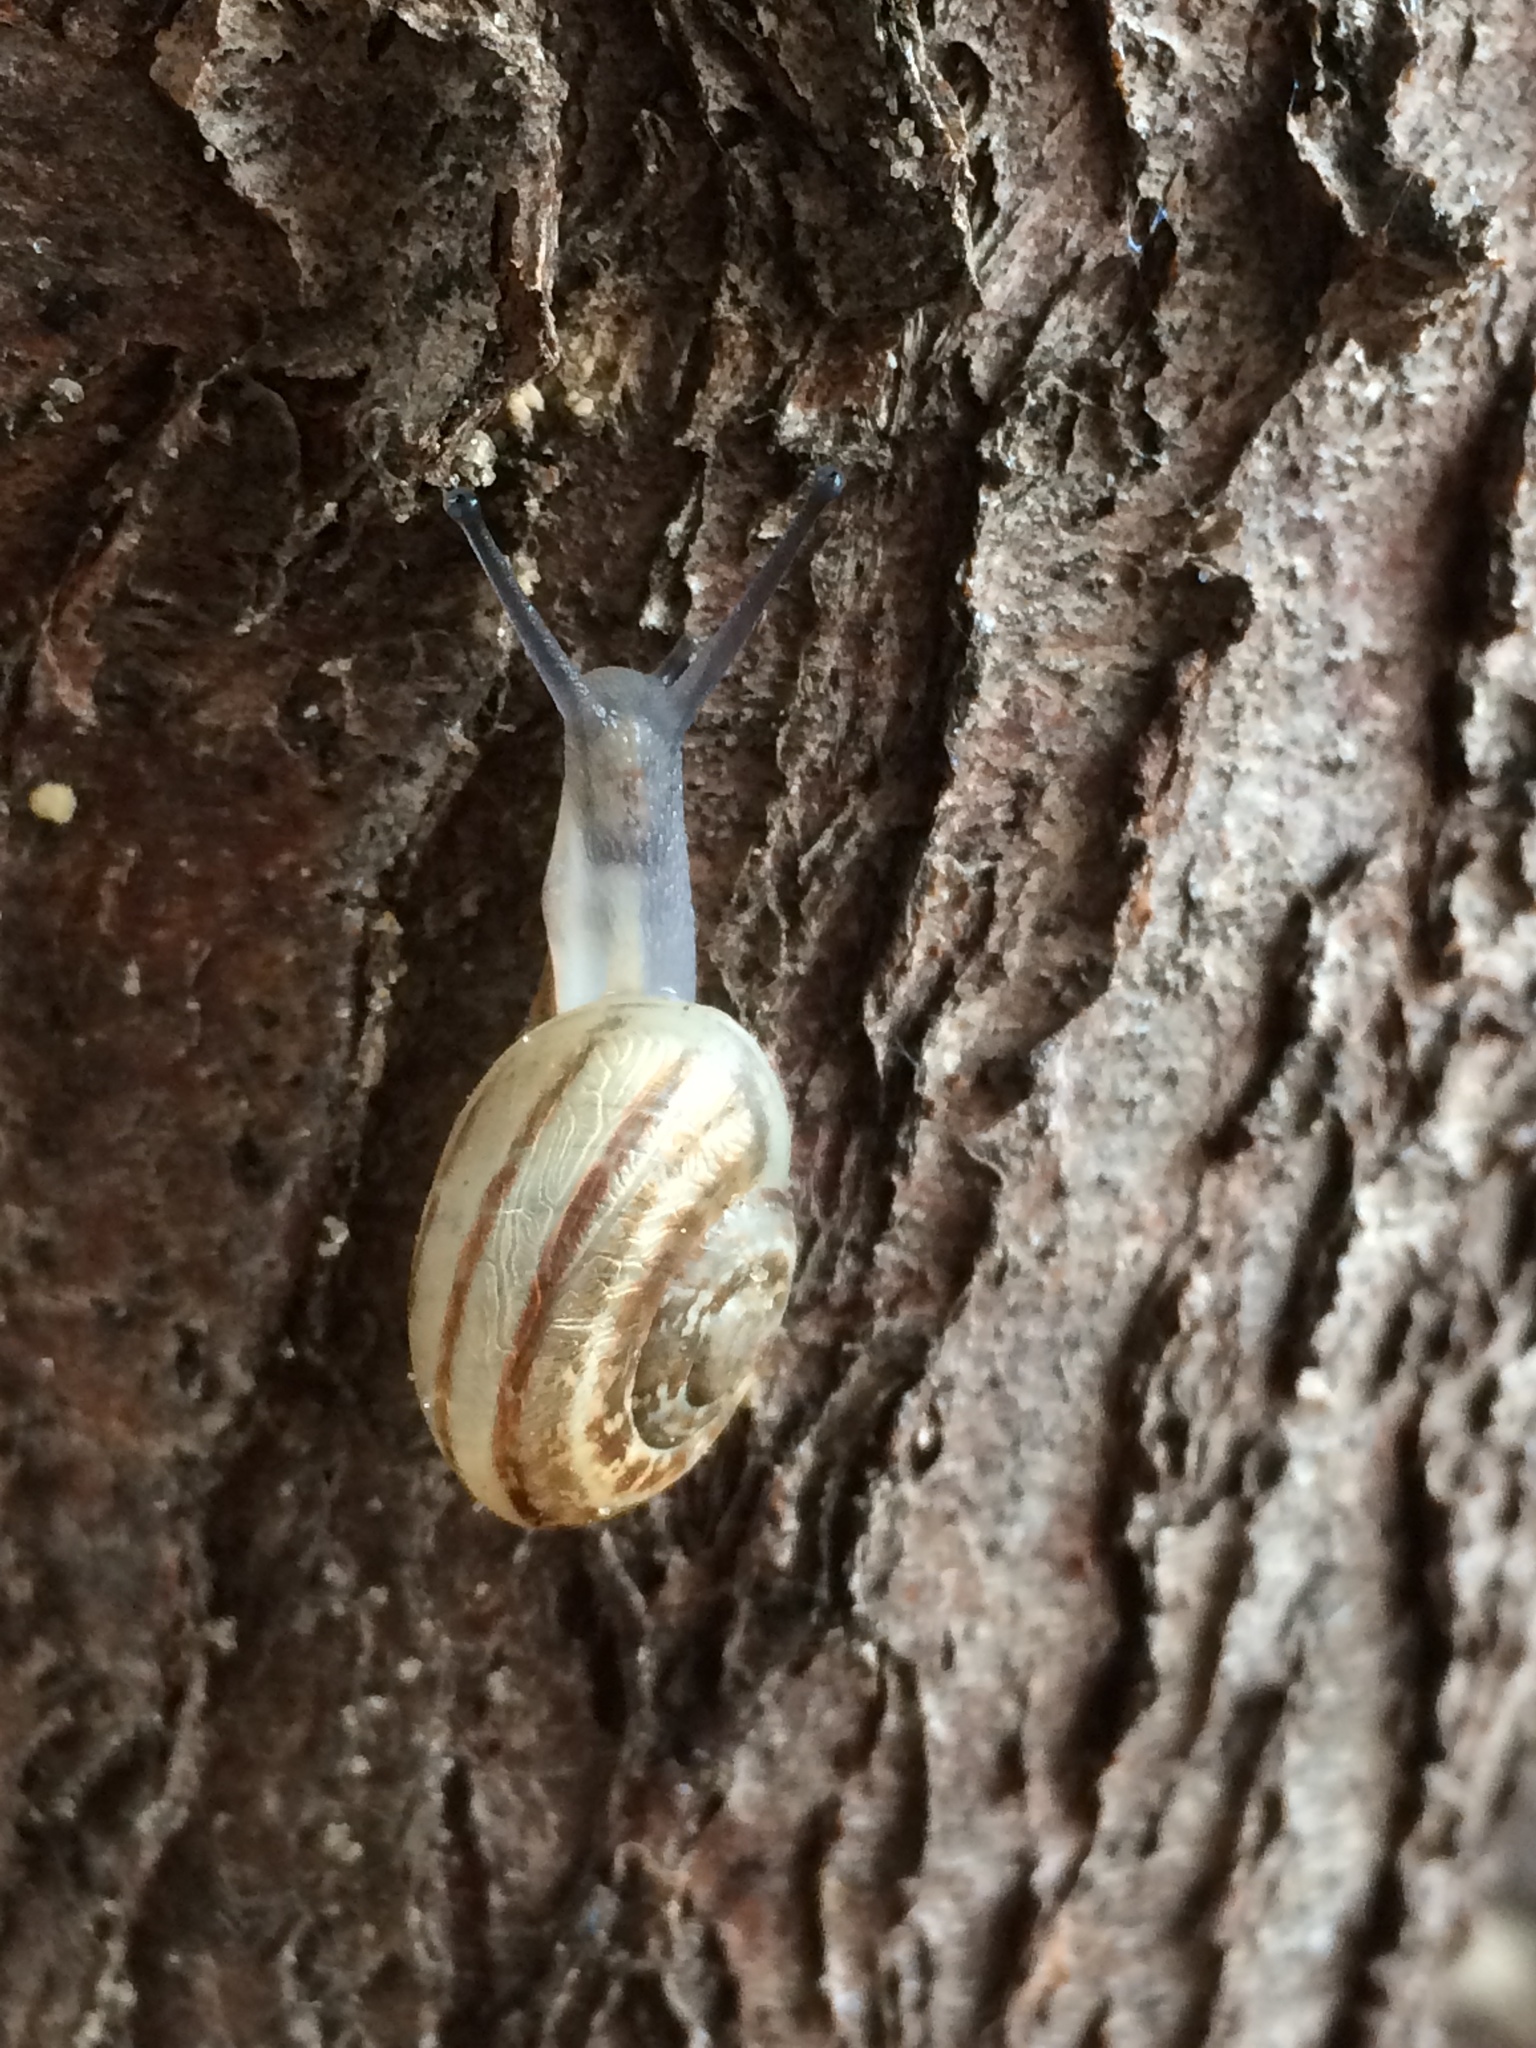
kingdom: Animalia
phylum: Mollusca
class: Gastropoda
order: Stylommatophora
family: Helicidae
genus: Eobania
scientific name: Eobania vermiculata
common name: Chocolateband snail
